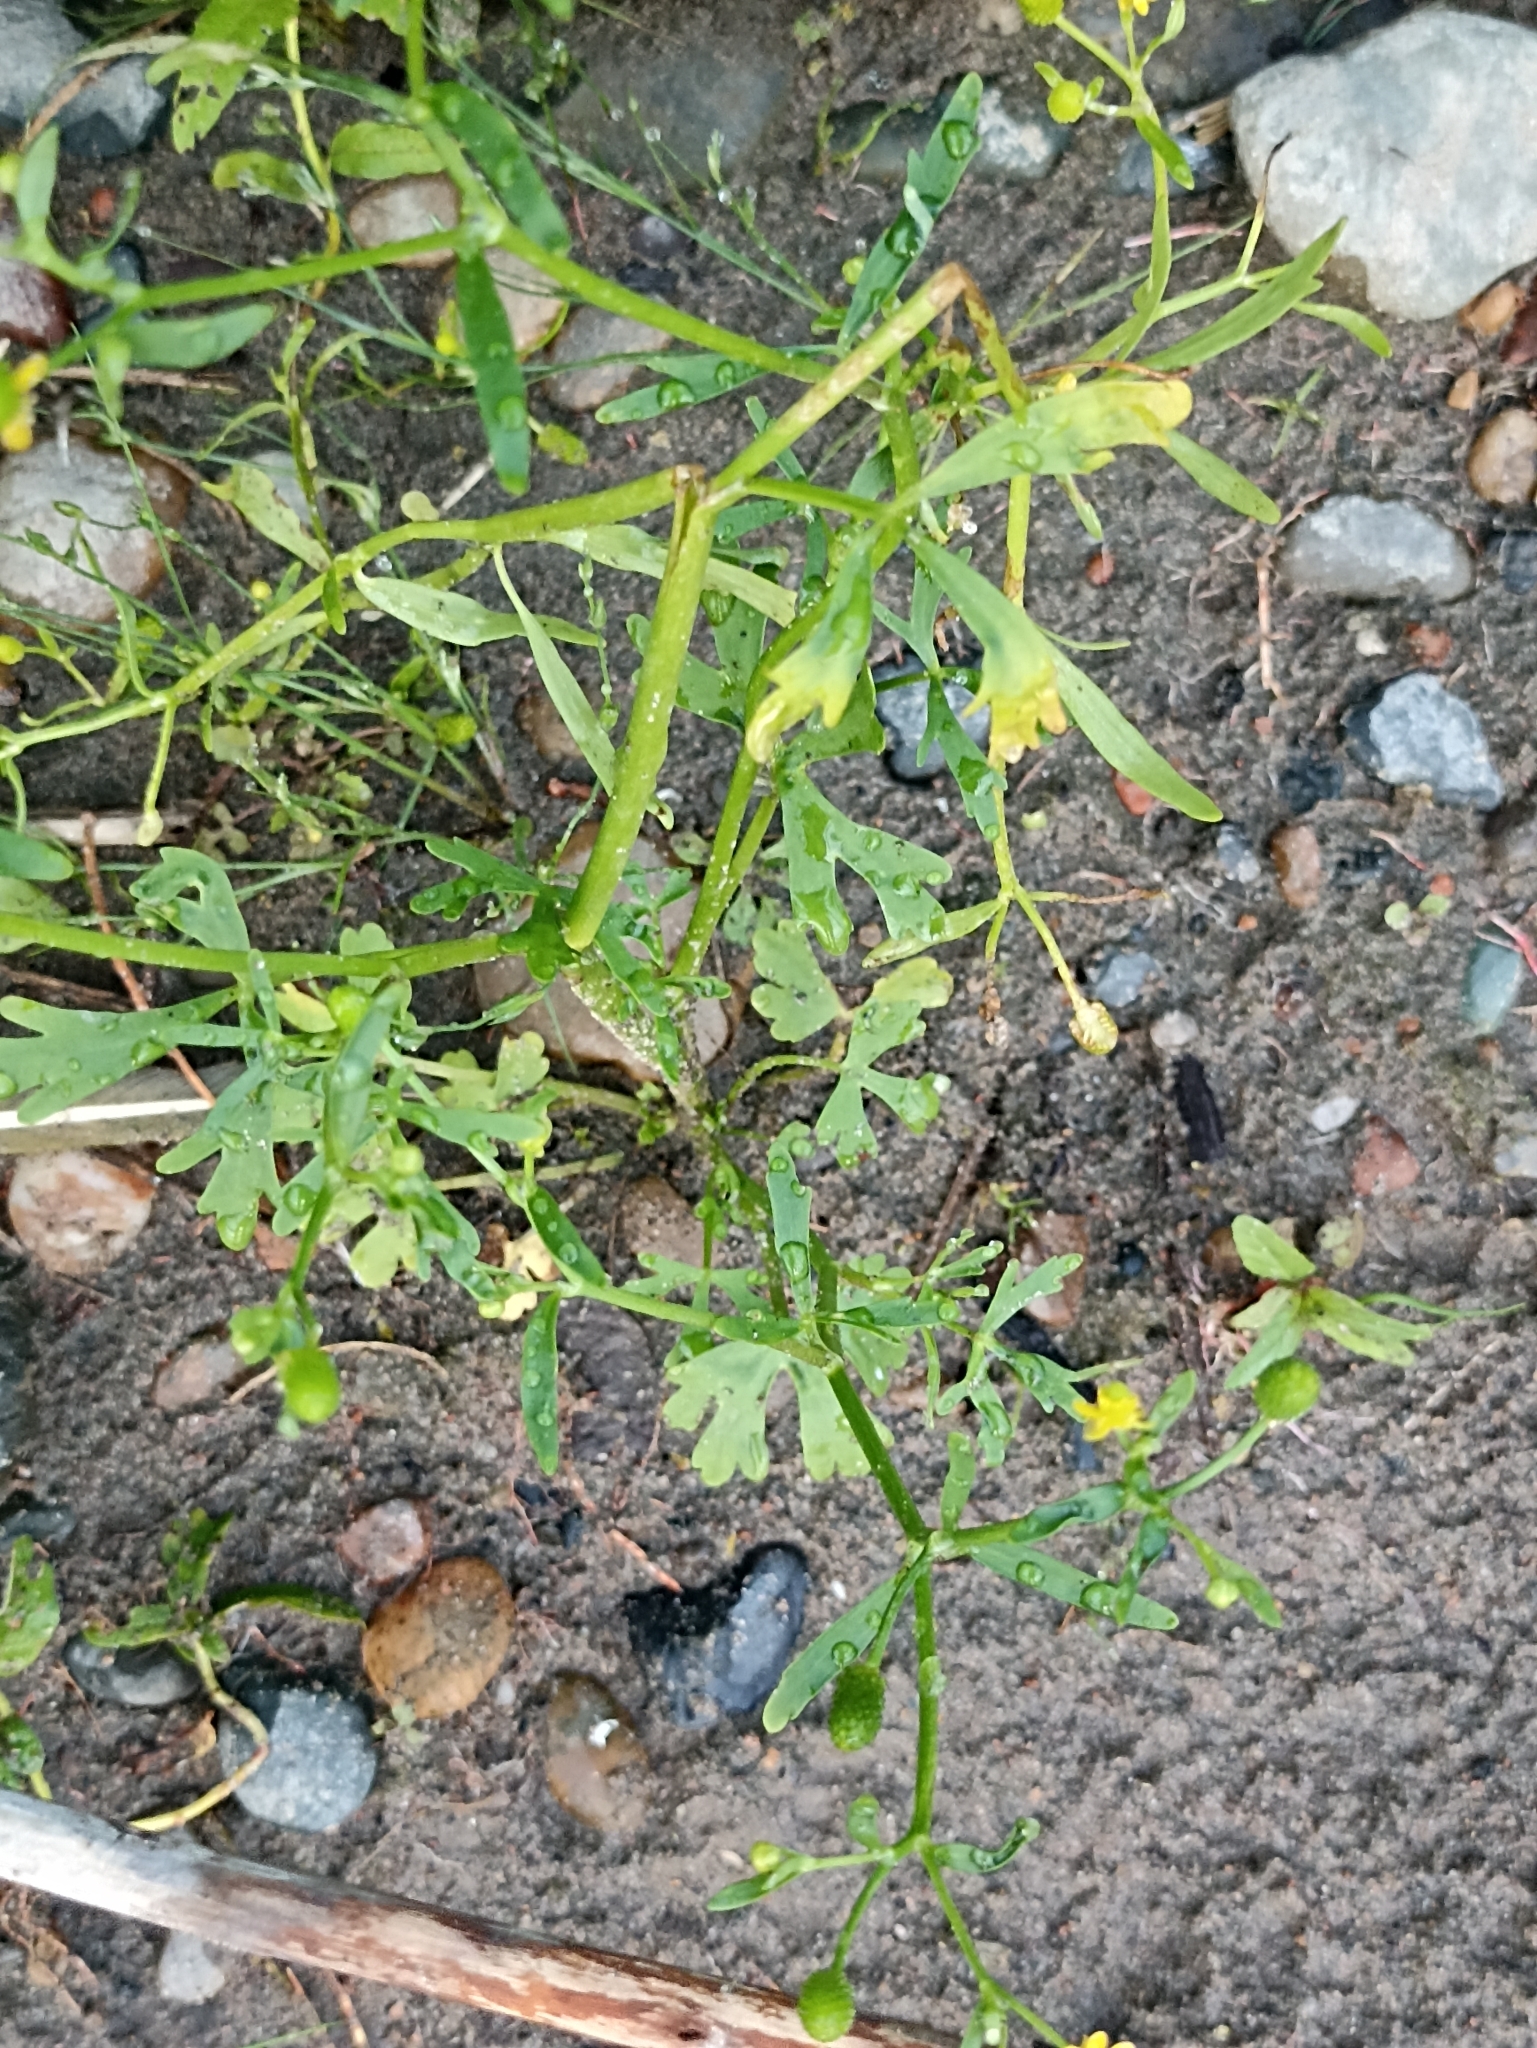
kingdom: Plantae
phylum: Tracheophyta
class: Magnoliopsida
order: Ranunculales
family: Ranunculaceae
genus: Ranunculus
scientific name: Ranunculus sceleratus
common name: Celery-leaved buttercup
